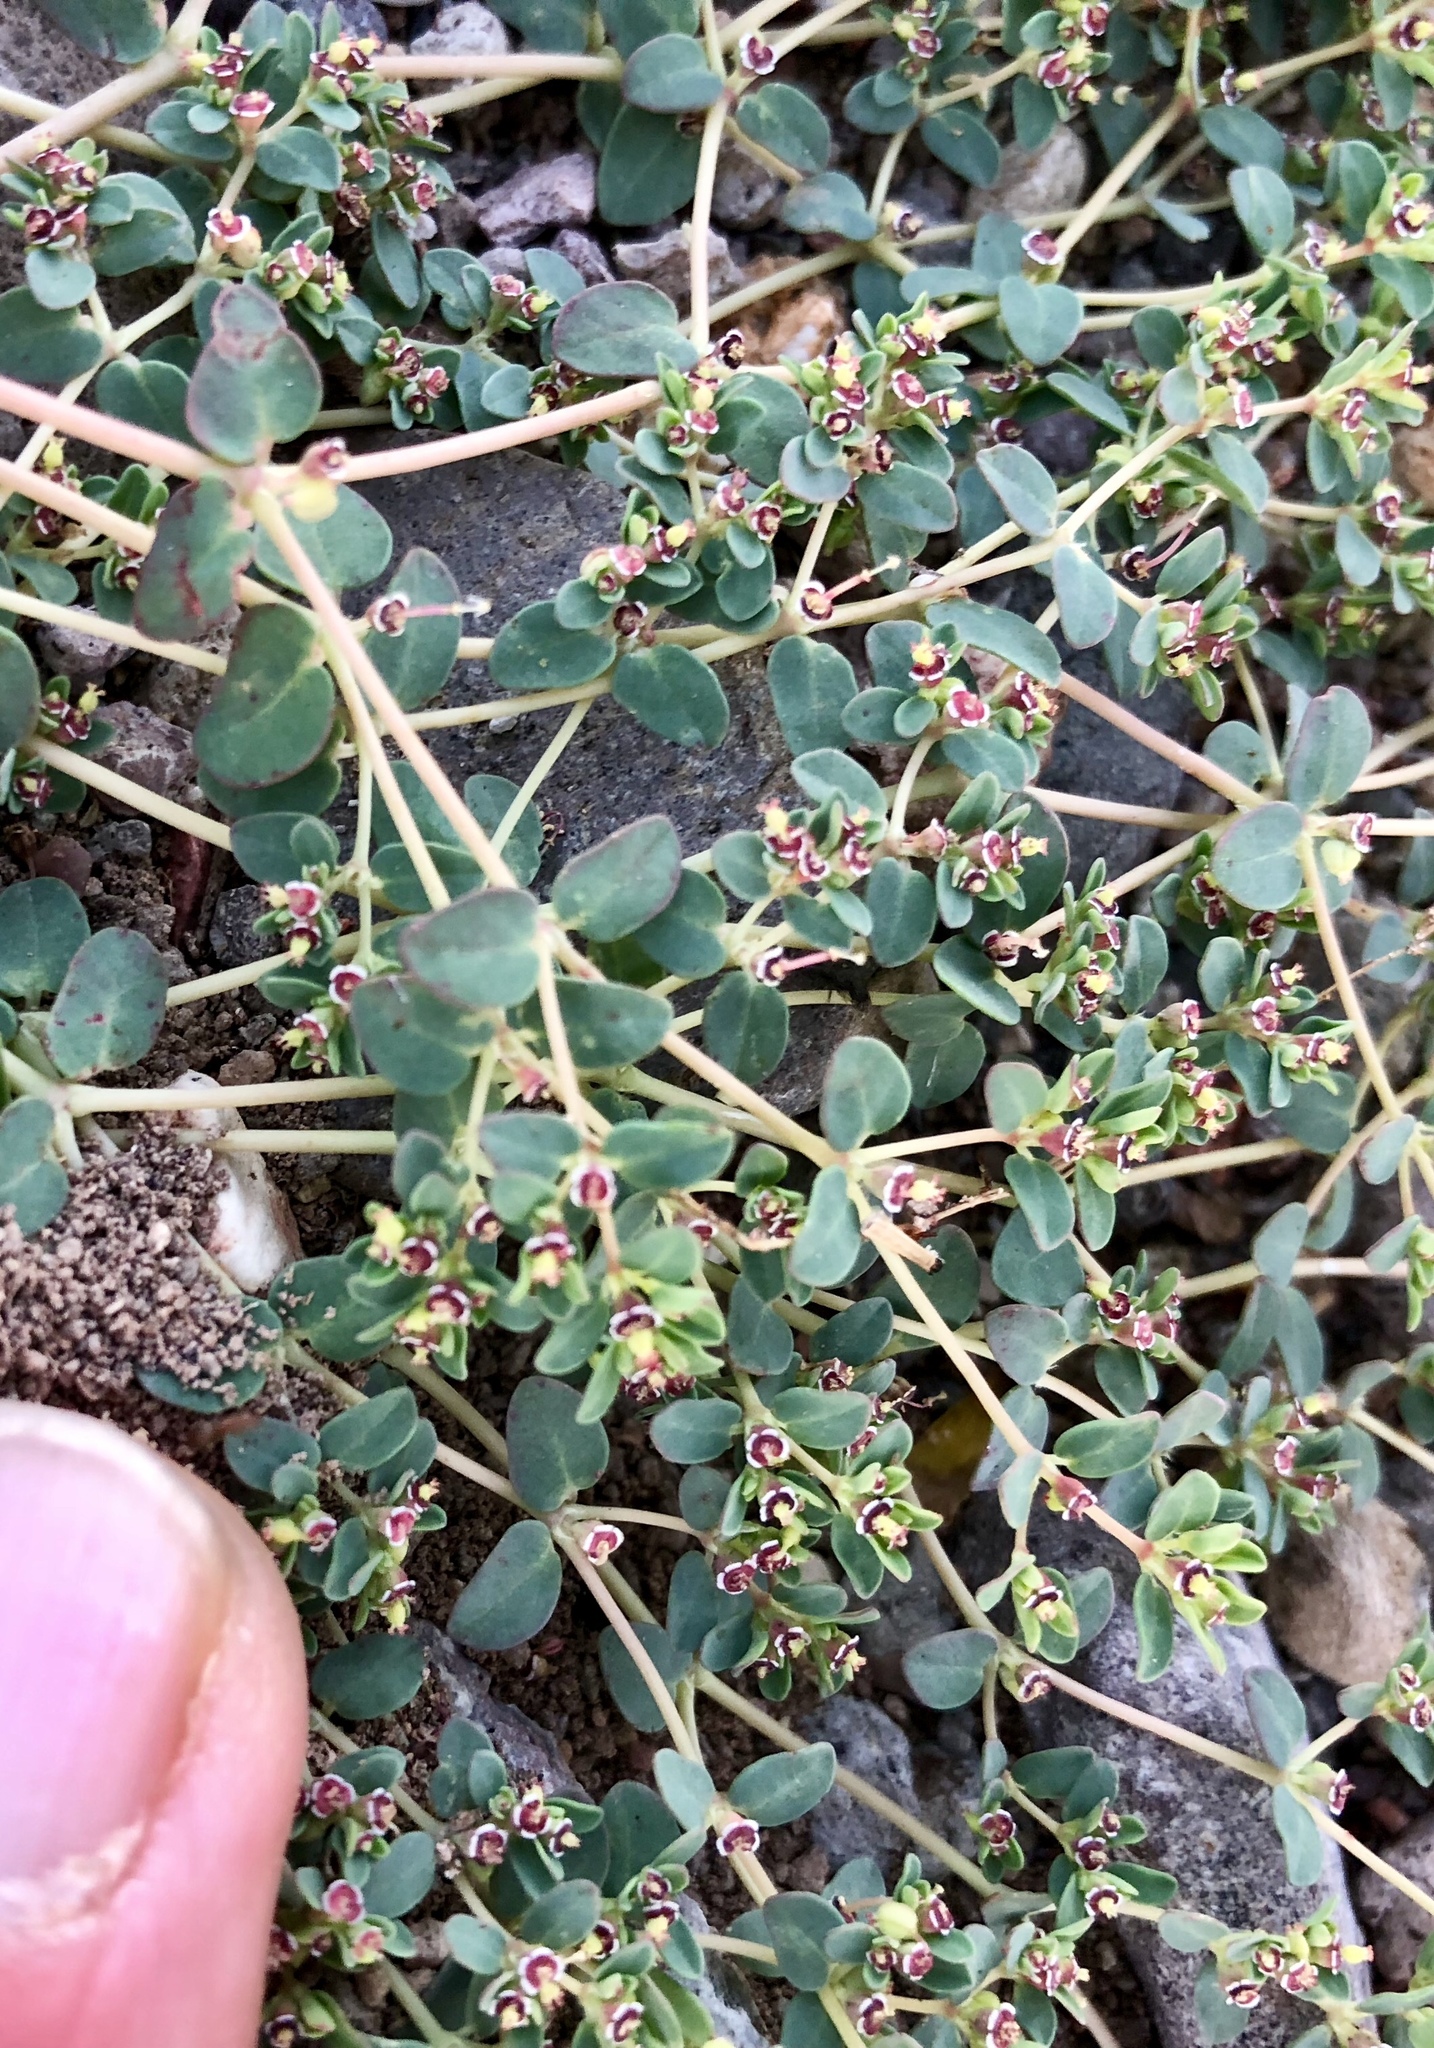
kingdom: Plantae
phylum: Tracheophyta
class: Magnoliopsida
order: Malpighiales
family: Euphorbiaceae
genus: Euphorbia
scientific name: Euphorbia polycarpa
